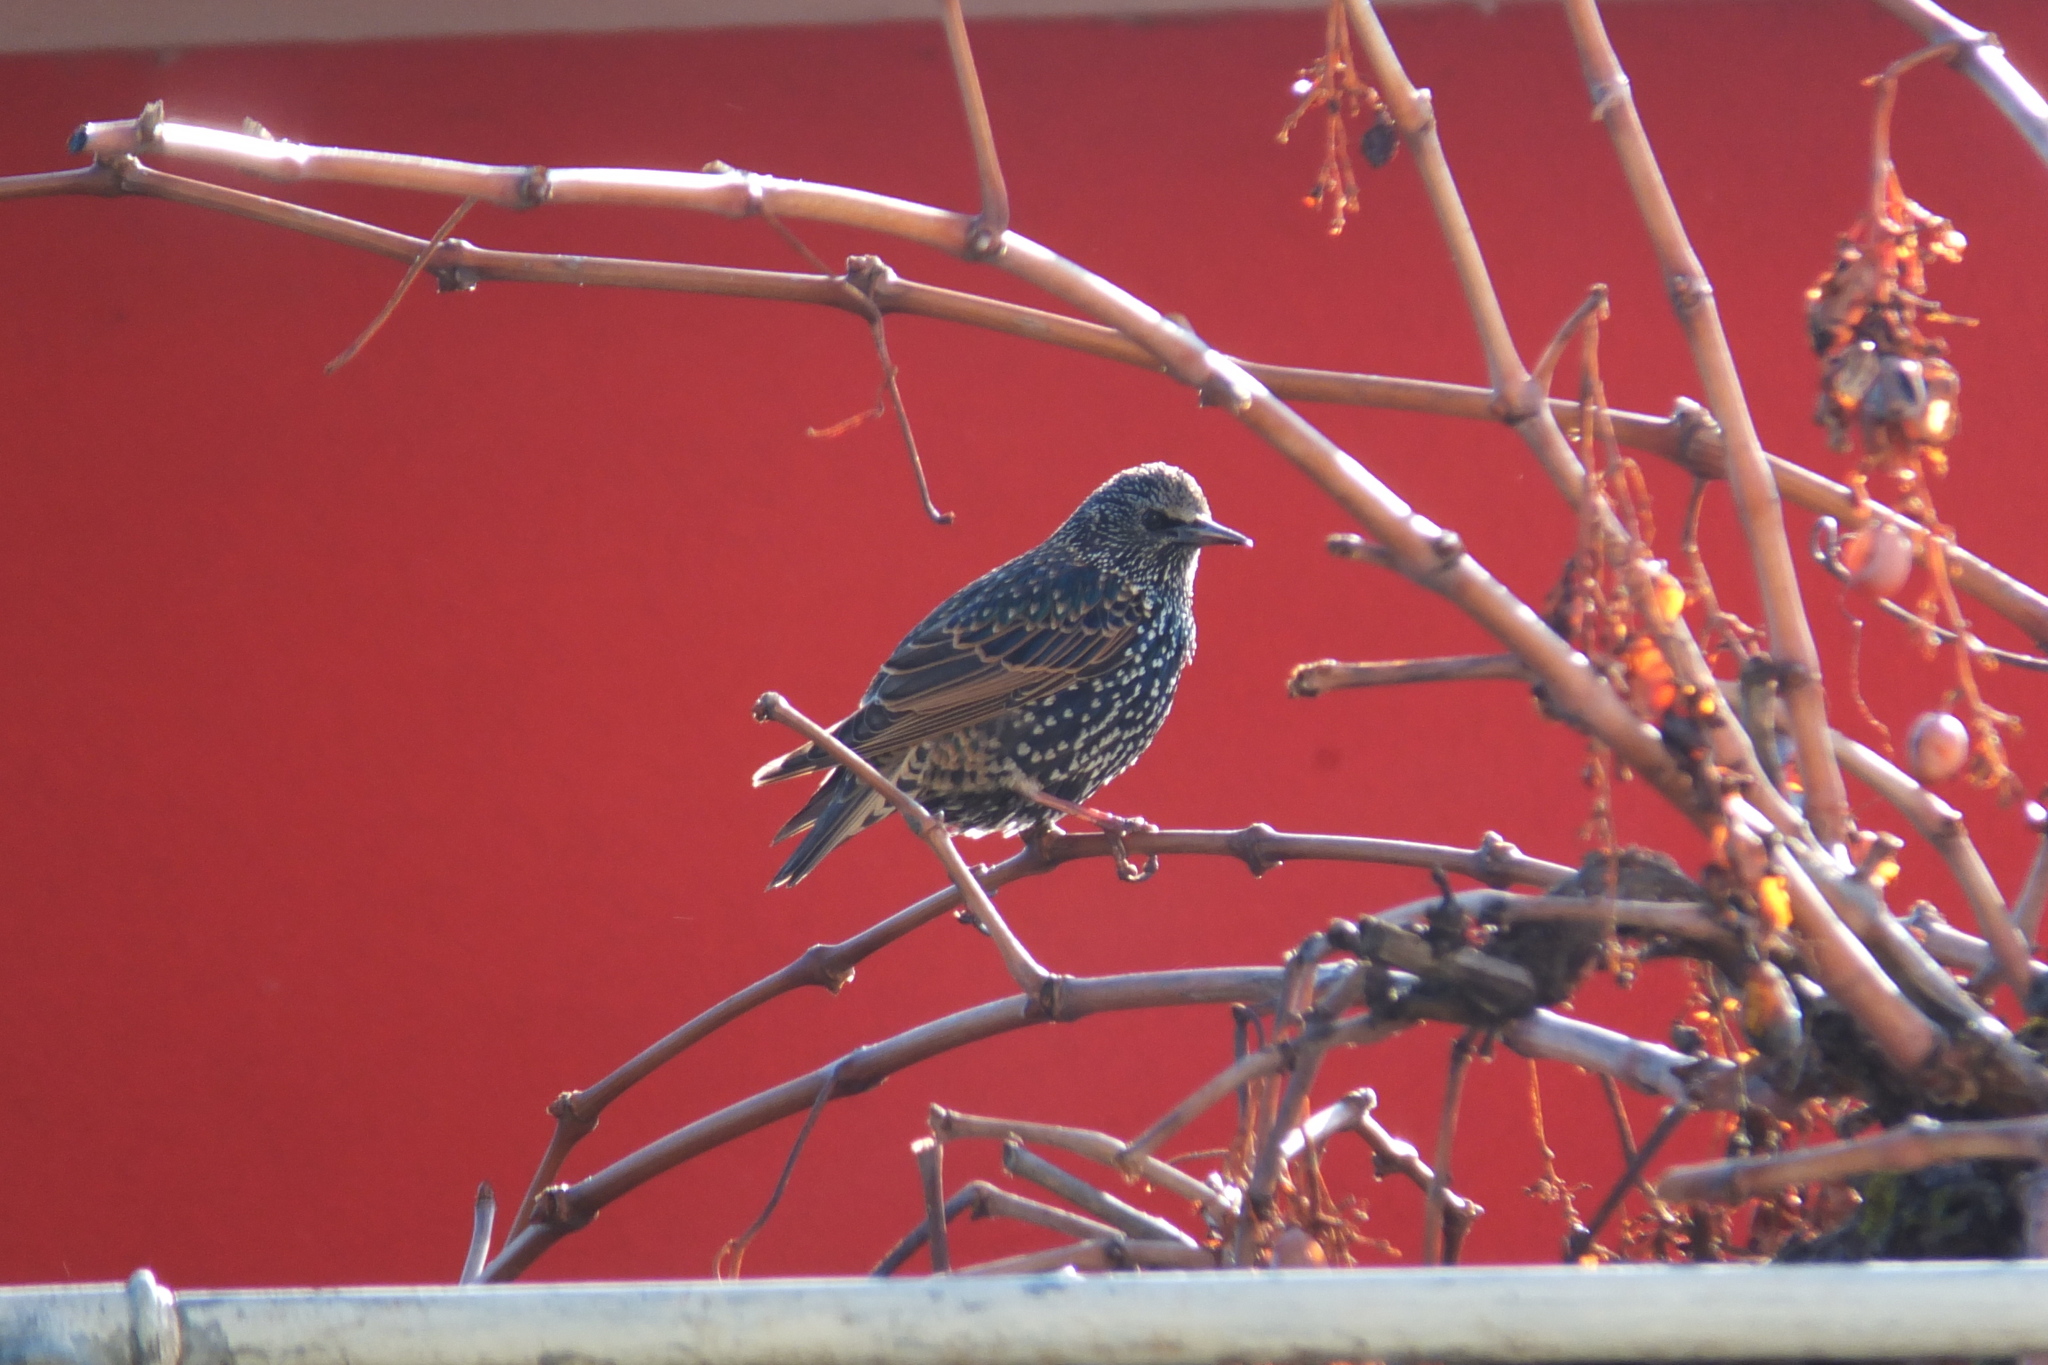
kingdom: Animalia
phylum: Chordata
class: Aves
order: Passeriformes
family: Sturnidae
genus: Sturnus
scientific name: Sturnus vulgaris
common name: Common starling
